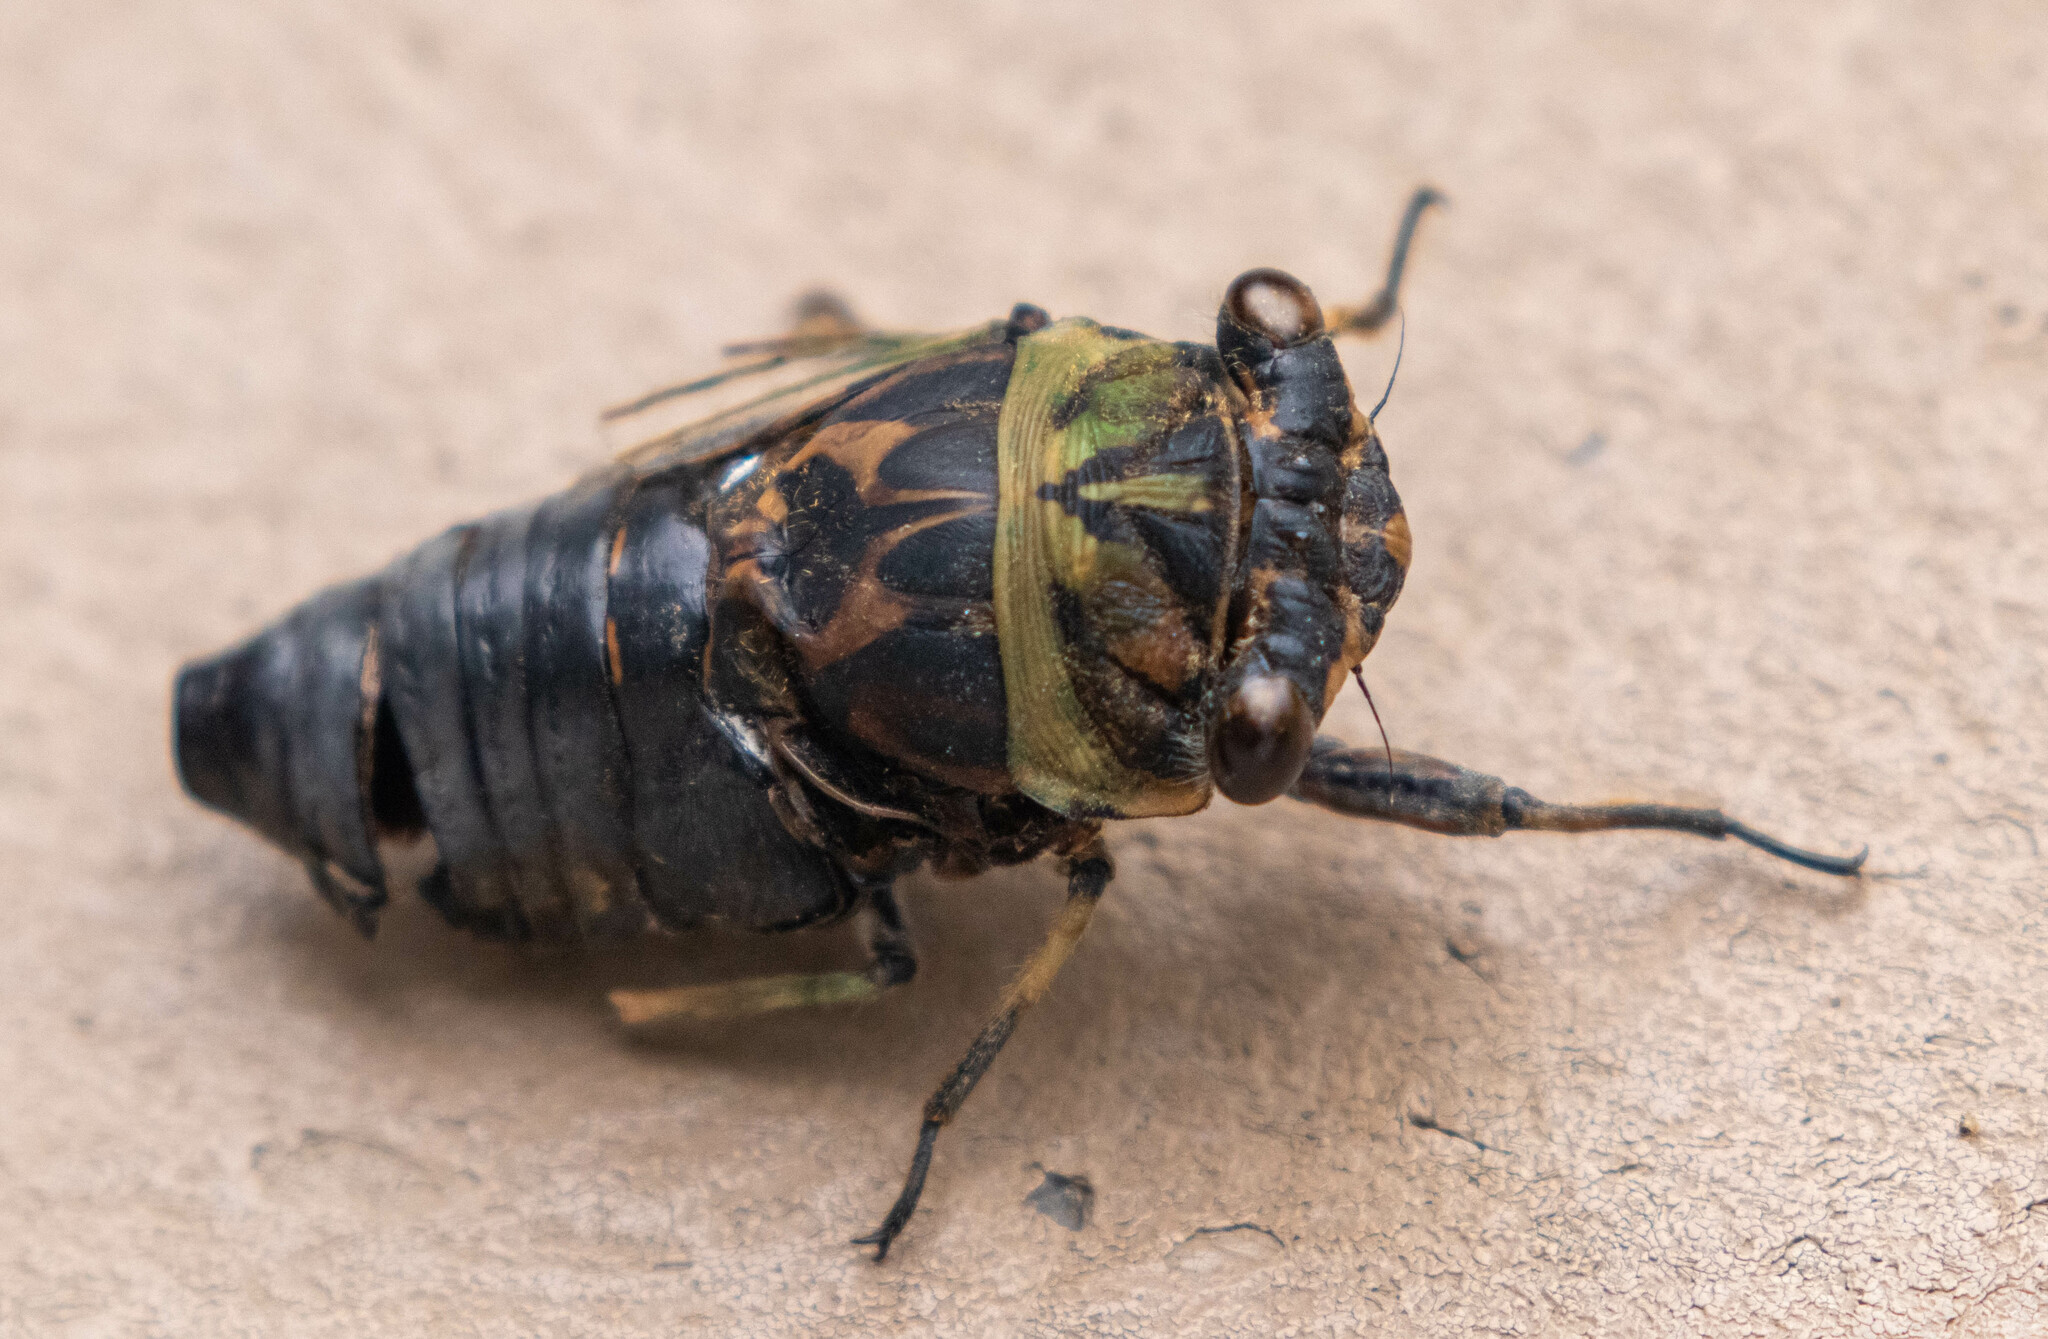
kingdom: Animalia
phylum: Arthropoda
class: Insecta
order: Hemiptera
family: Cicadidae
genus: Neotibicen
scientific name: Neotibicen canicularis
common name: God-day cicada
